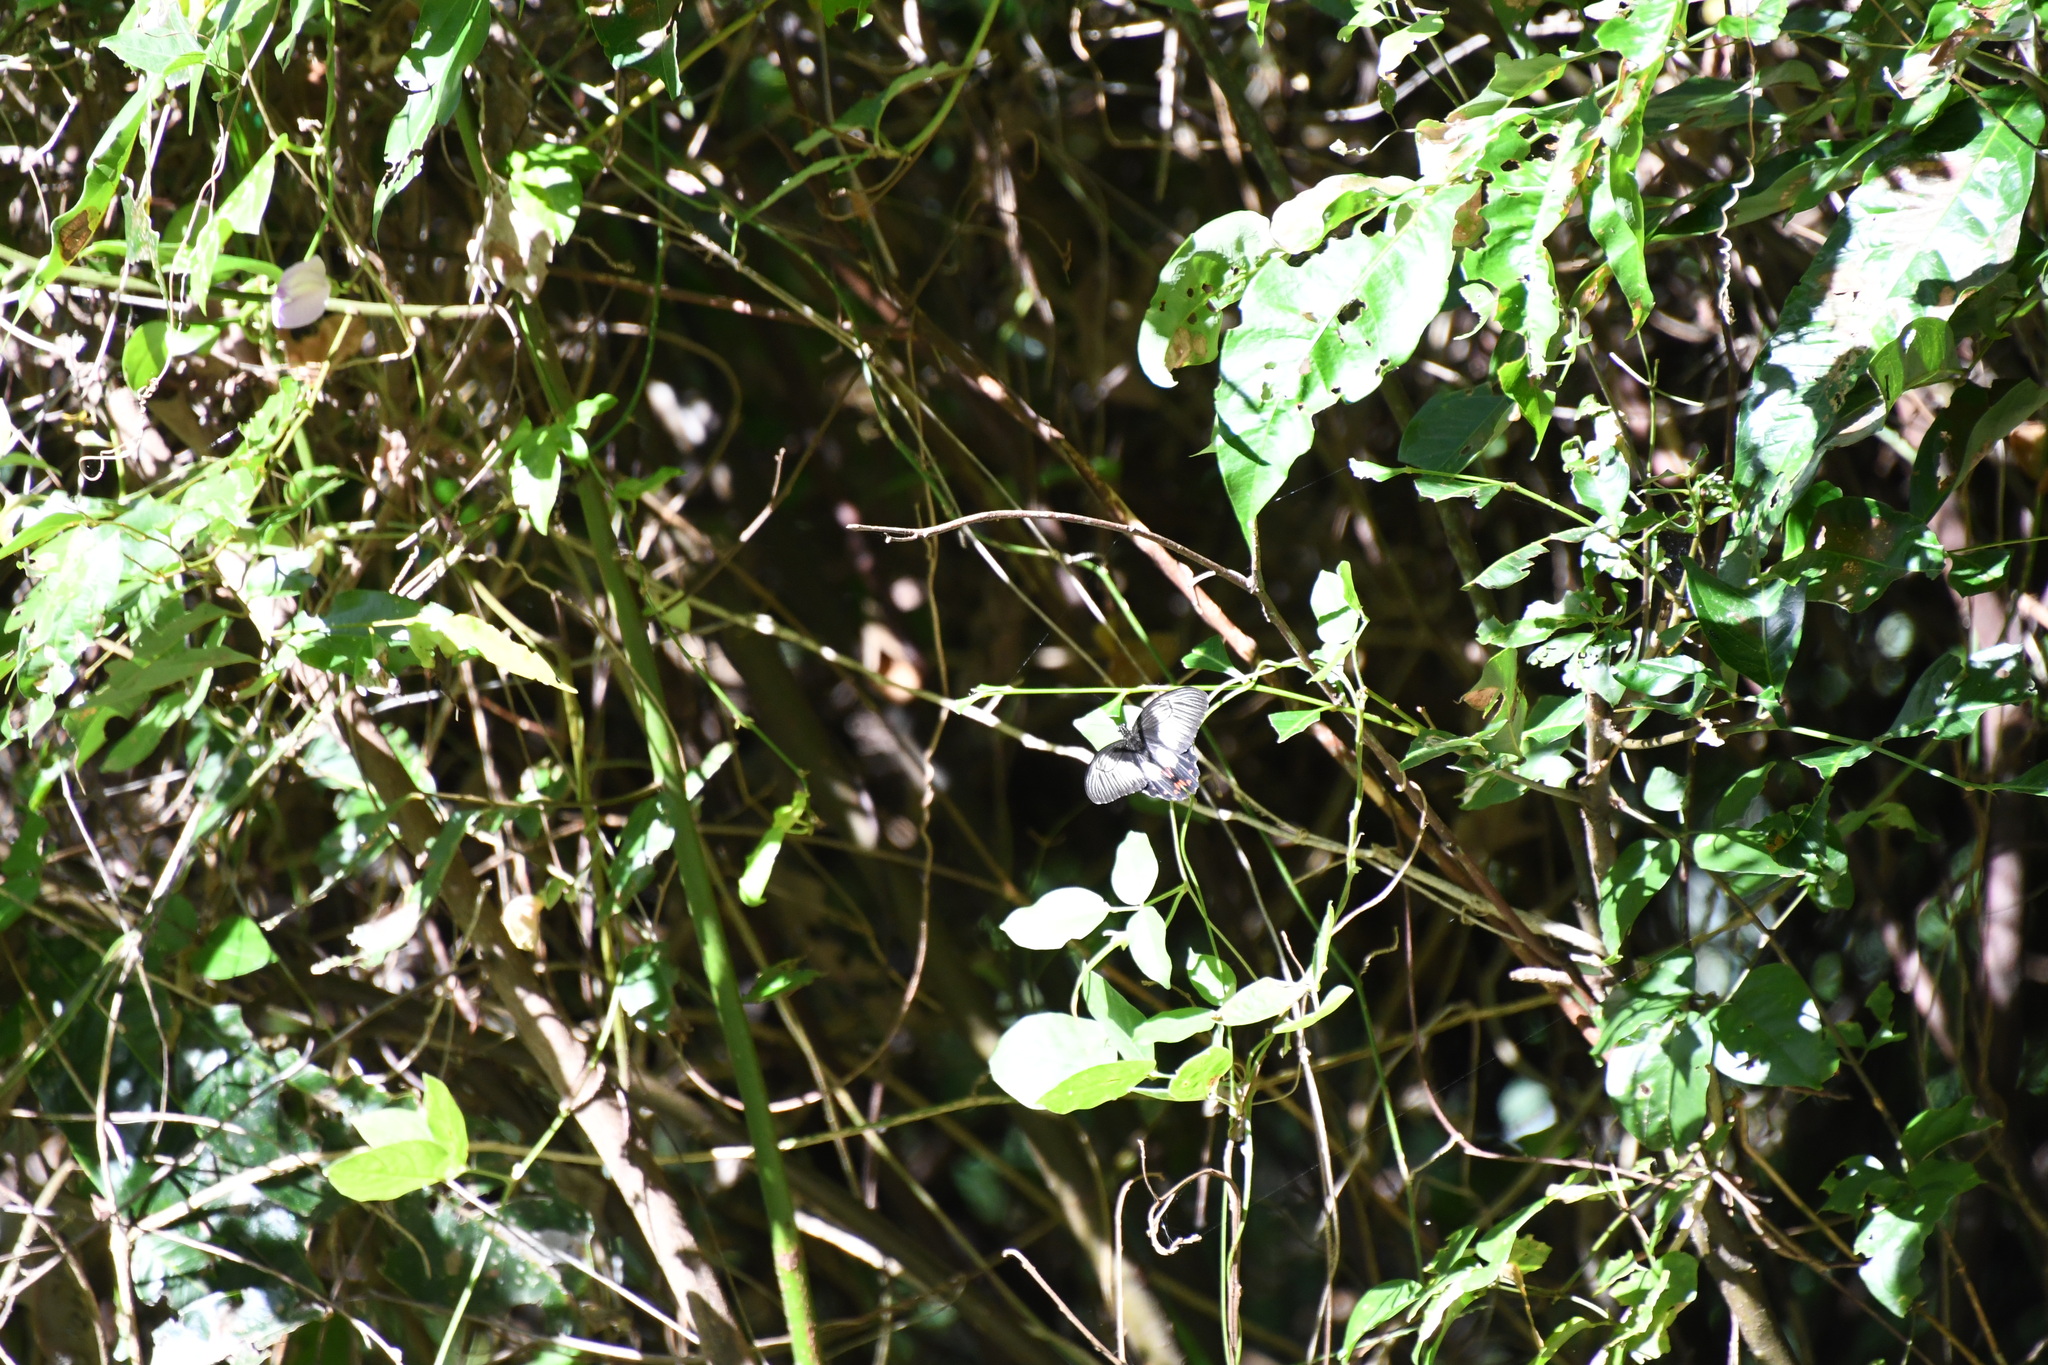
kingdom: Animalia
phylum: Arthropoda
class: Insecta
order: Lepidoptera
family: Papilionidae
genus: Papilio
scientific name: Papilio ambrax
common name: Ambrax butterfly
